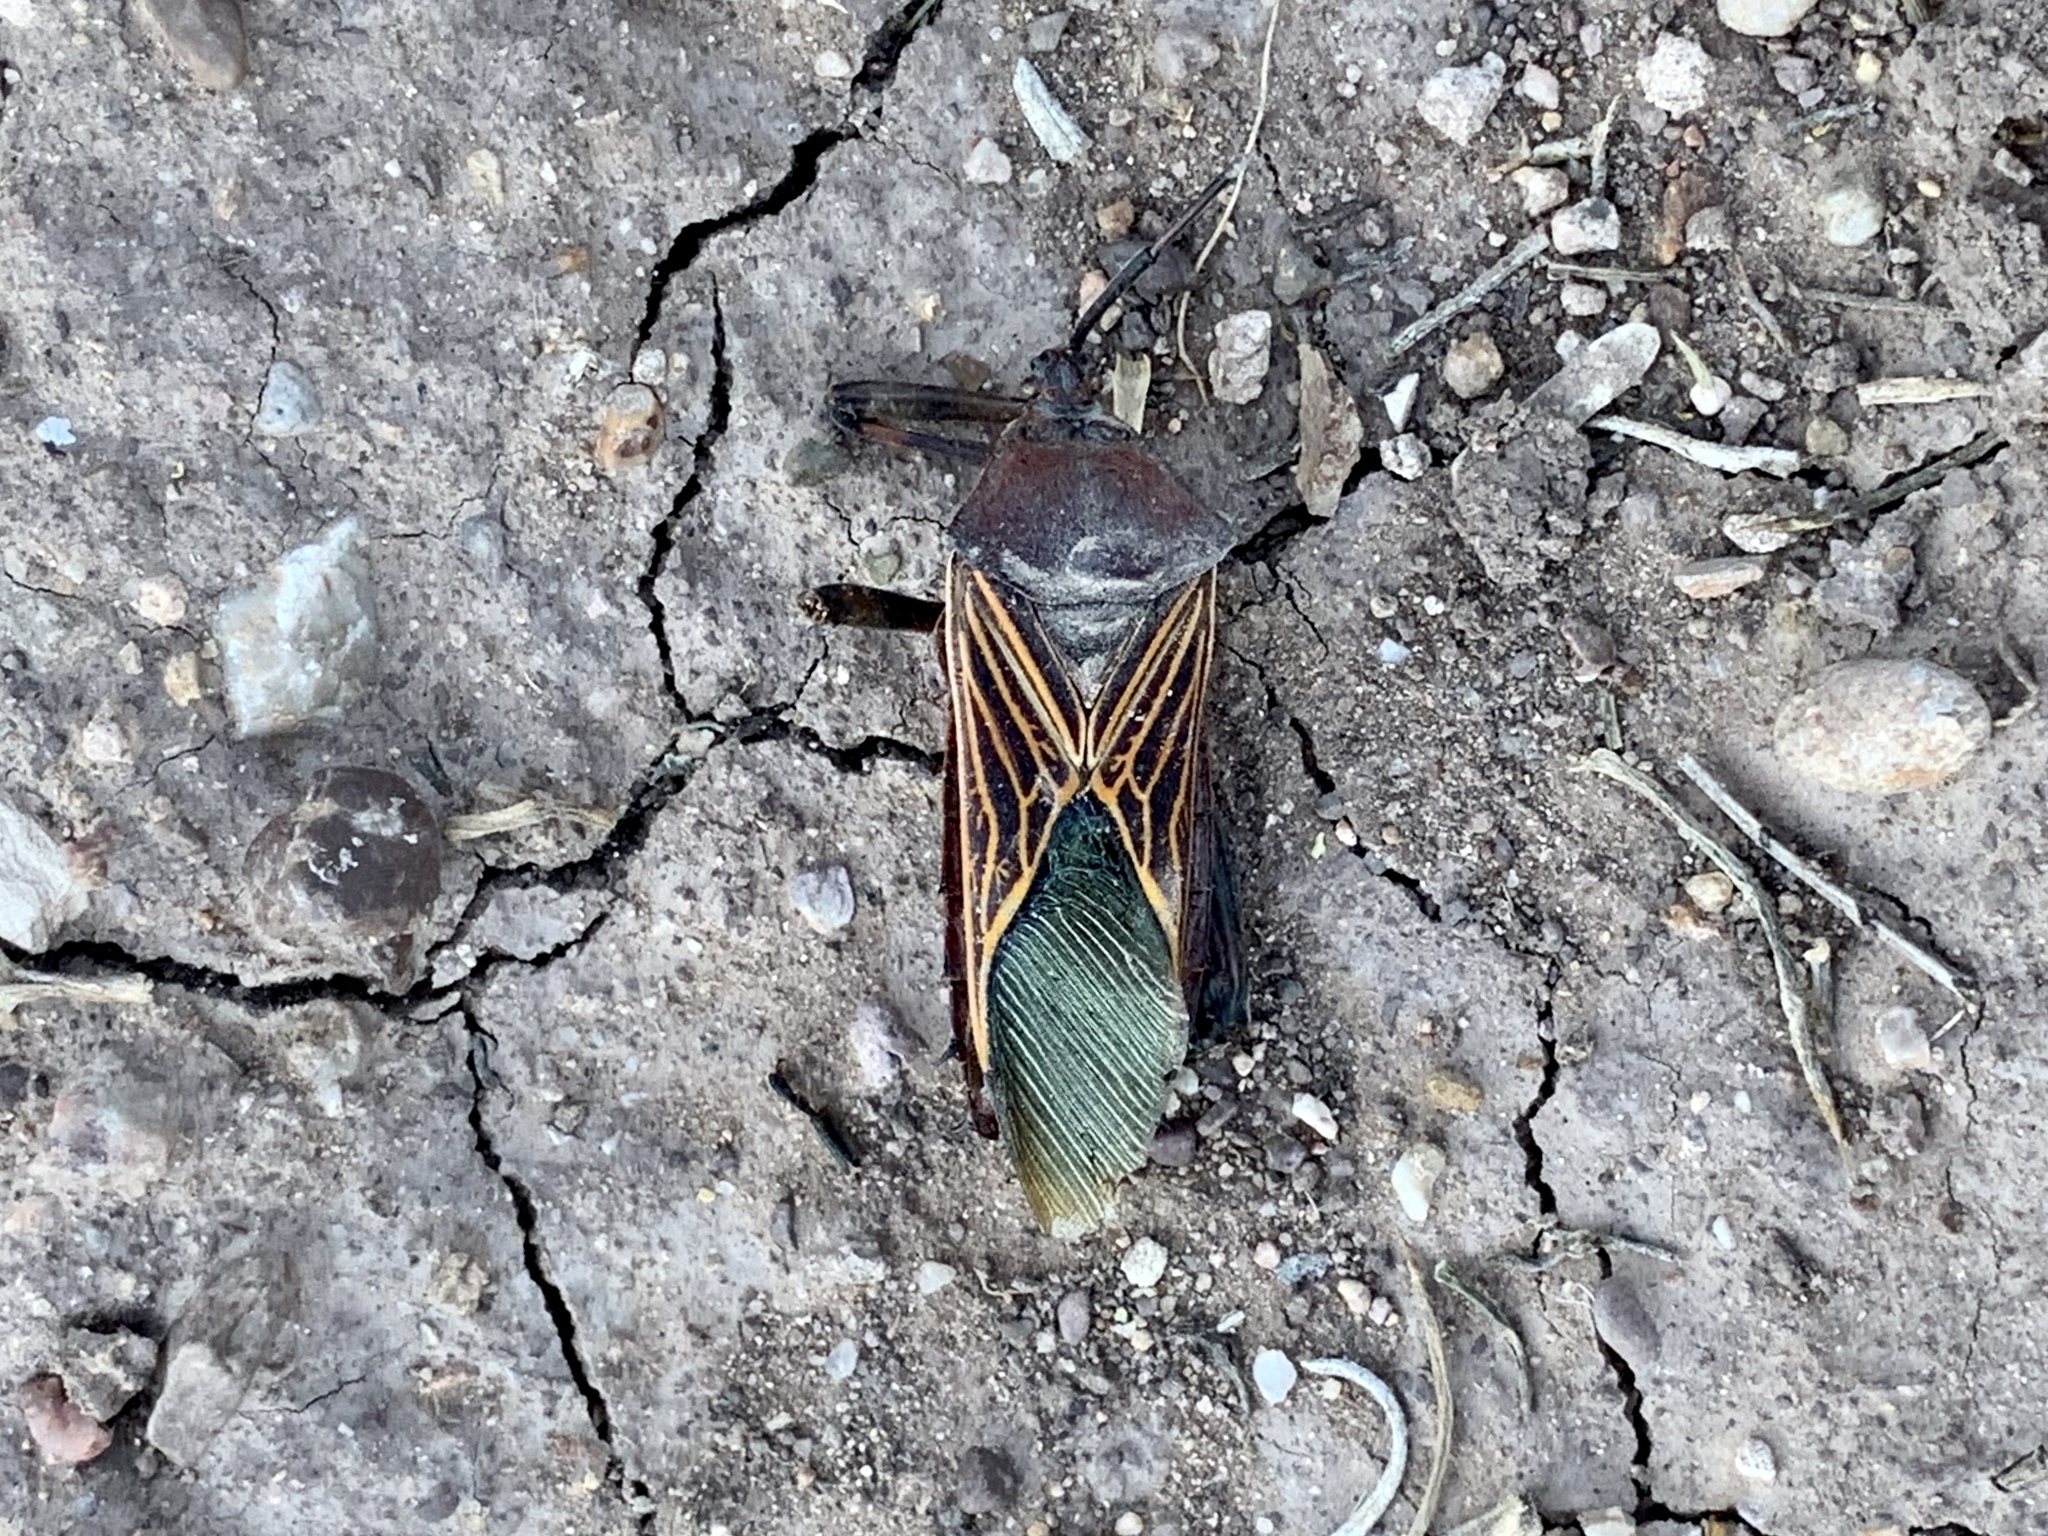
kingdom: Animalia
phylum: Arthropoda
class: Insecta
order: Hemiptera
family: Coreidae
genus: Thasus
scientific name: Thasus neocalifornicus
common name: Giant mesquite bug
